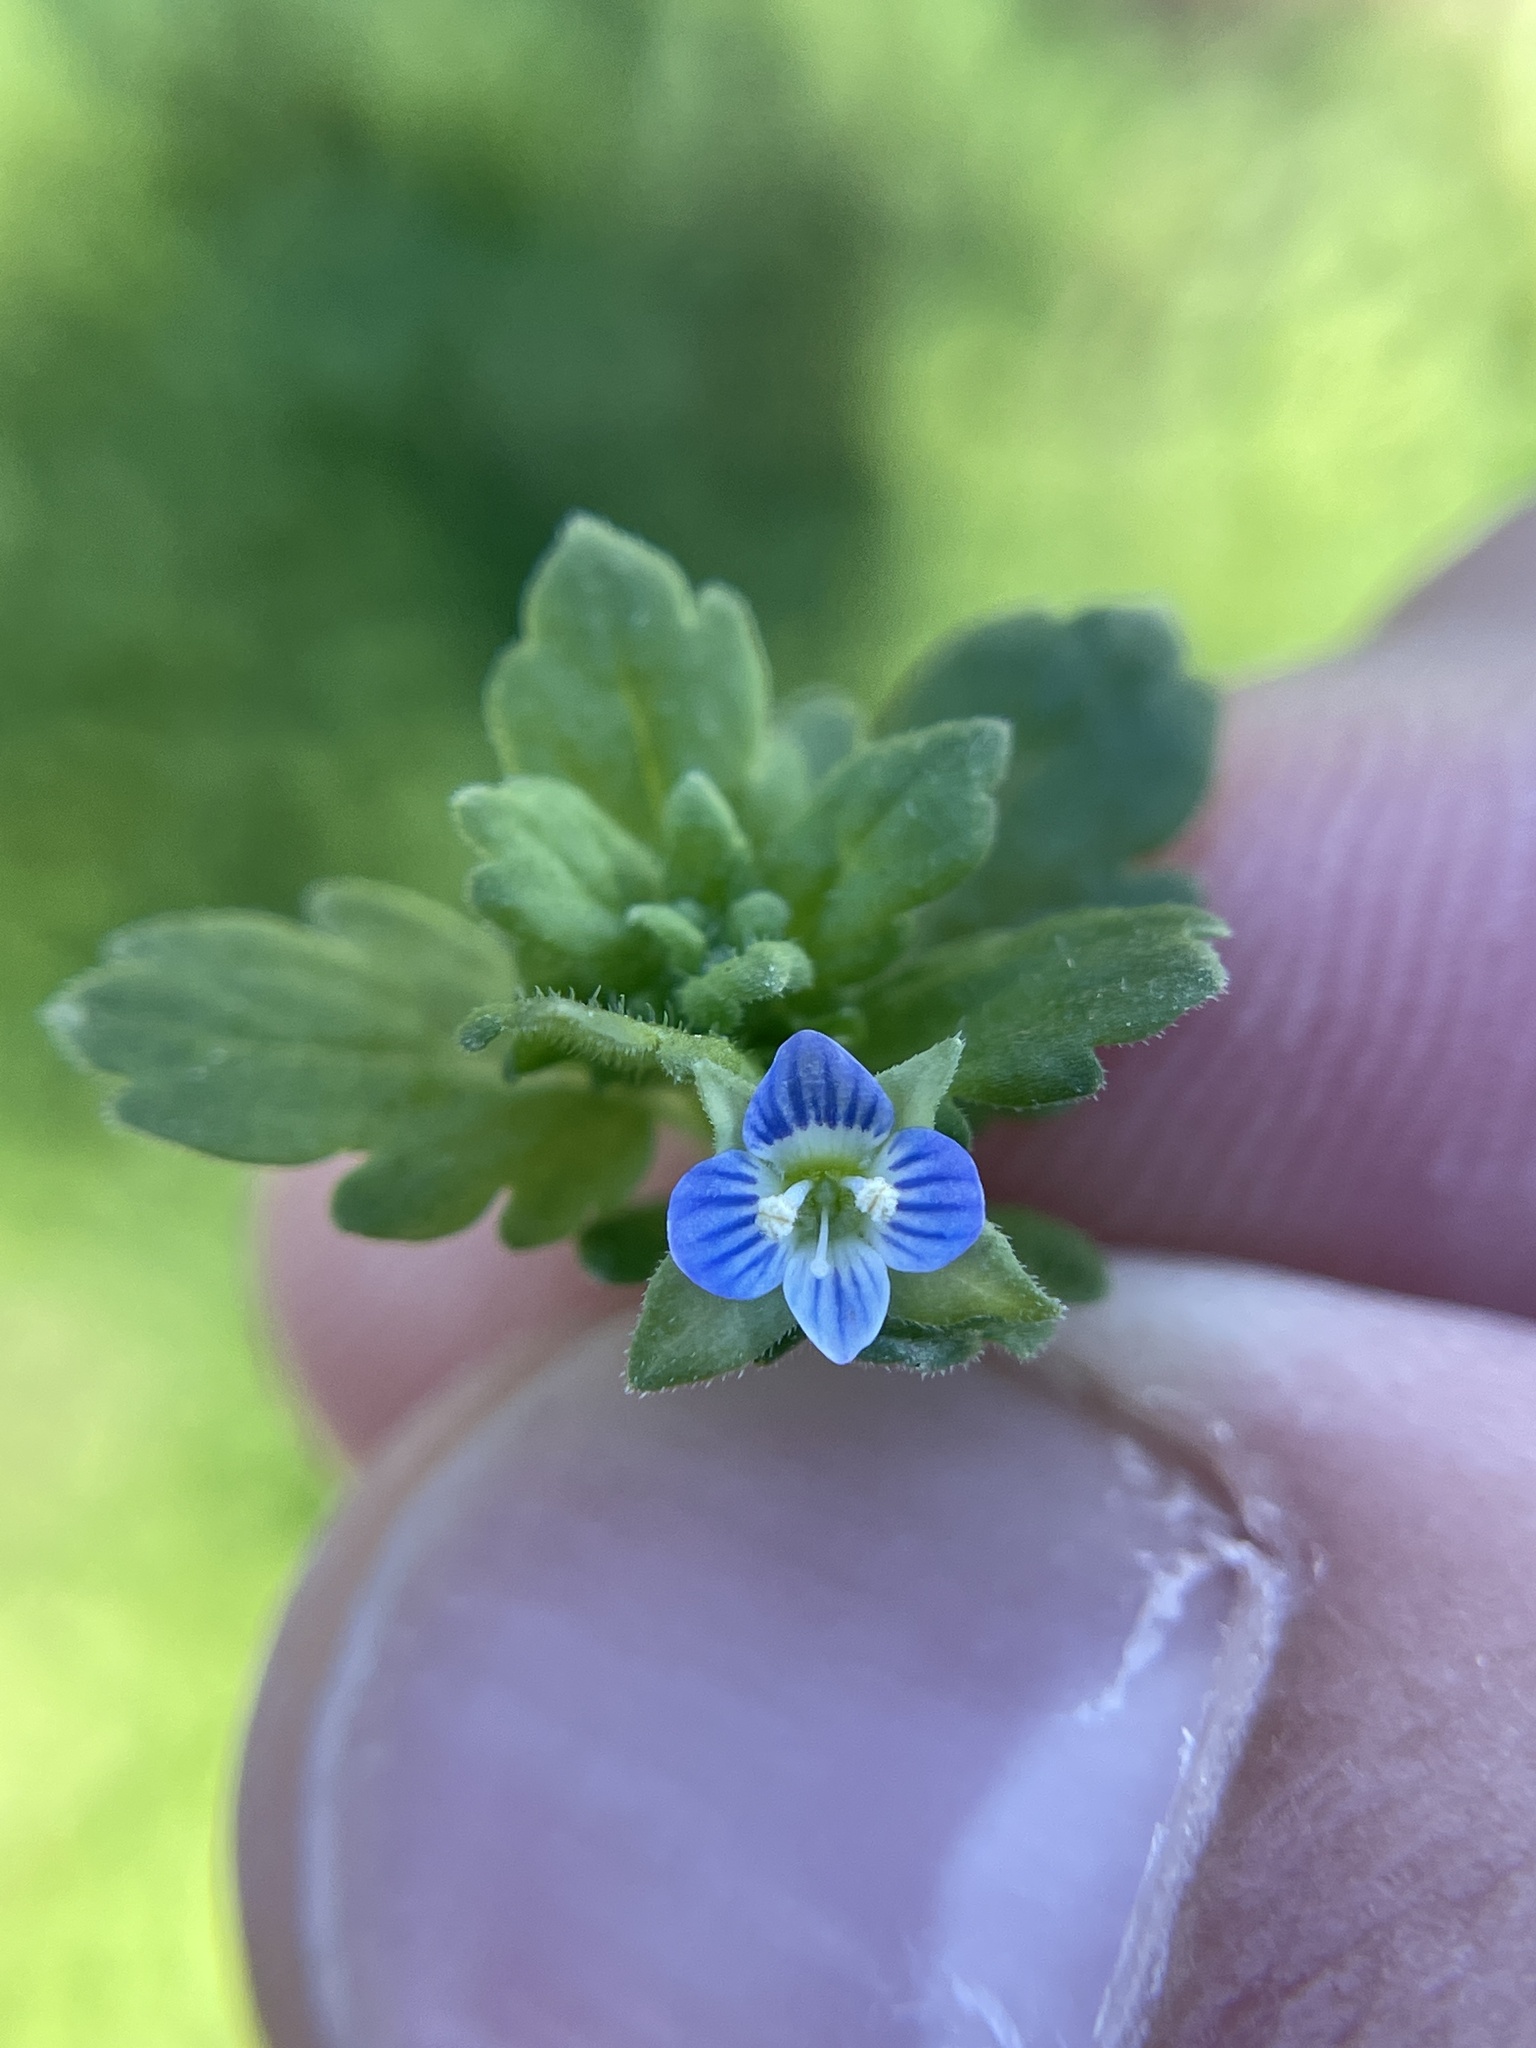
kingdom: Plantae
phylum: Tracheophyta
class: Magnoliopsida
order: Lamiales
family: Plantaginaceae
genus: Veronica
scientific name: Veronica polita
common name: Grey field-speedwell
